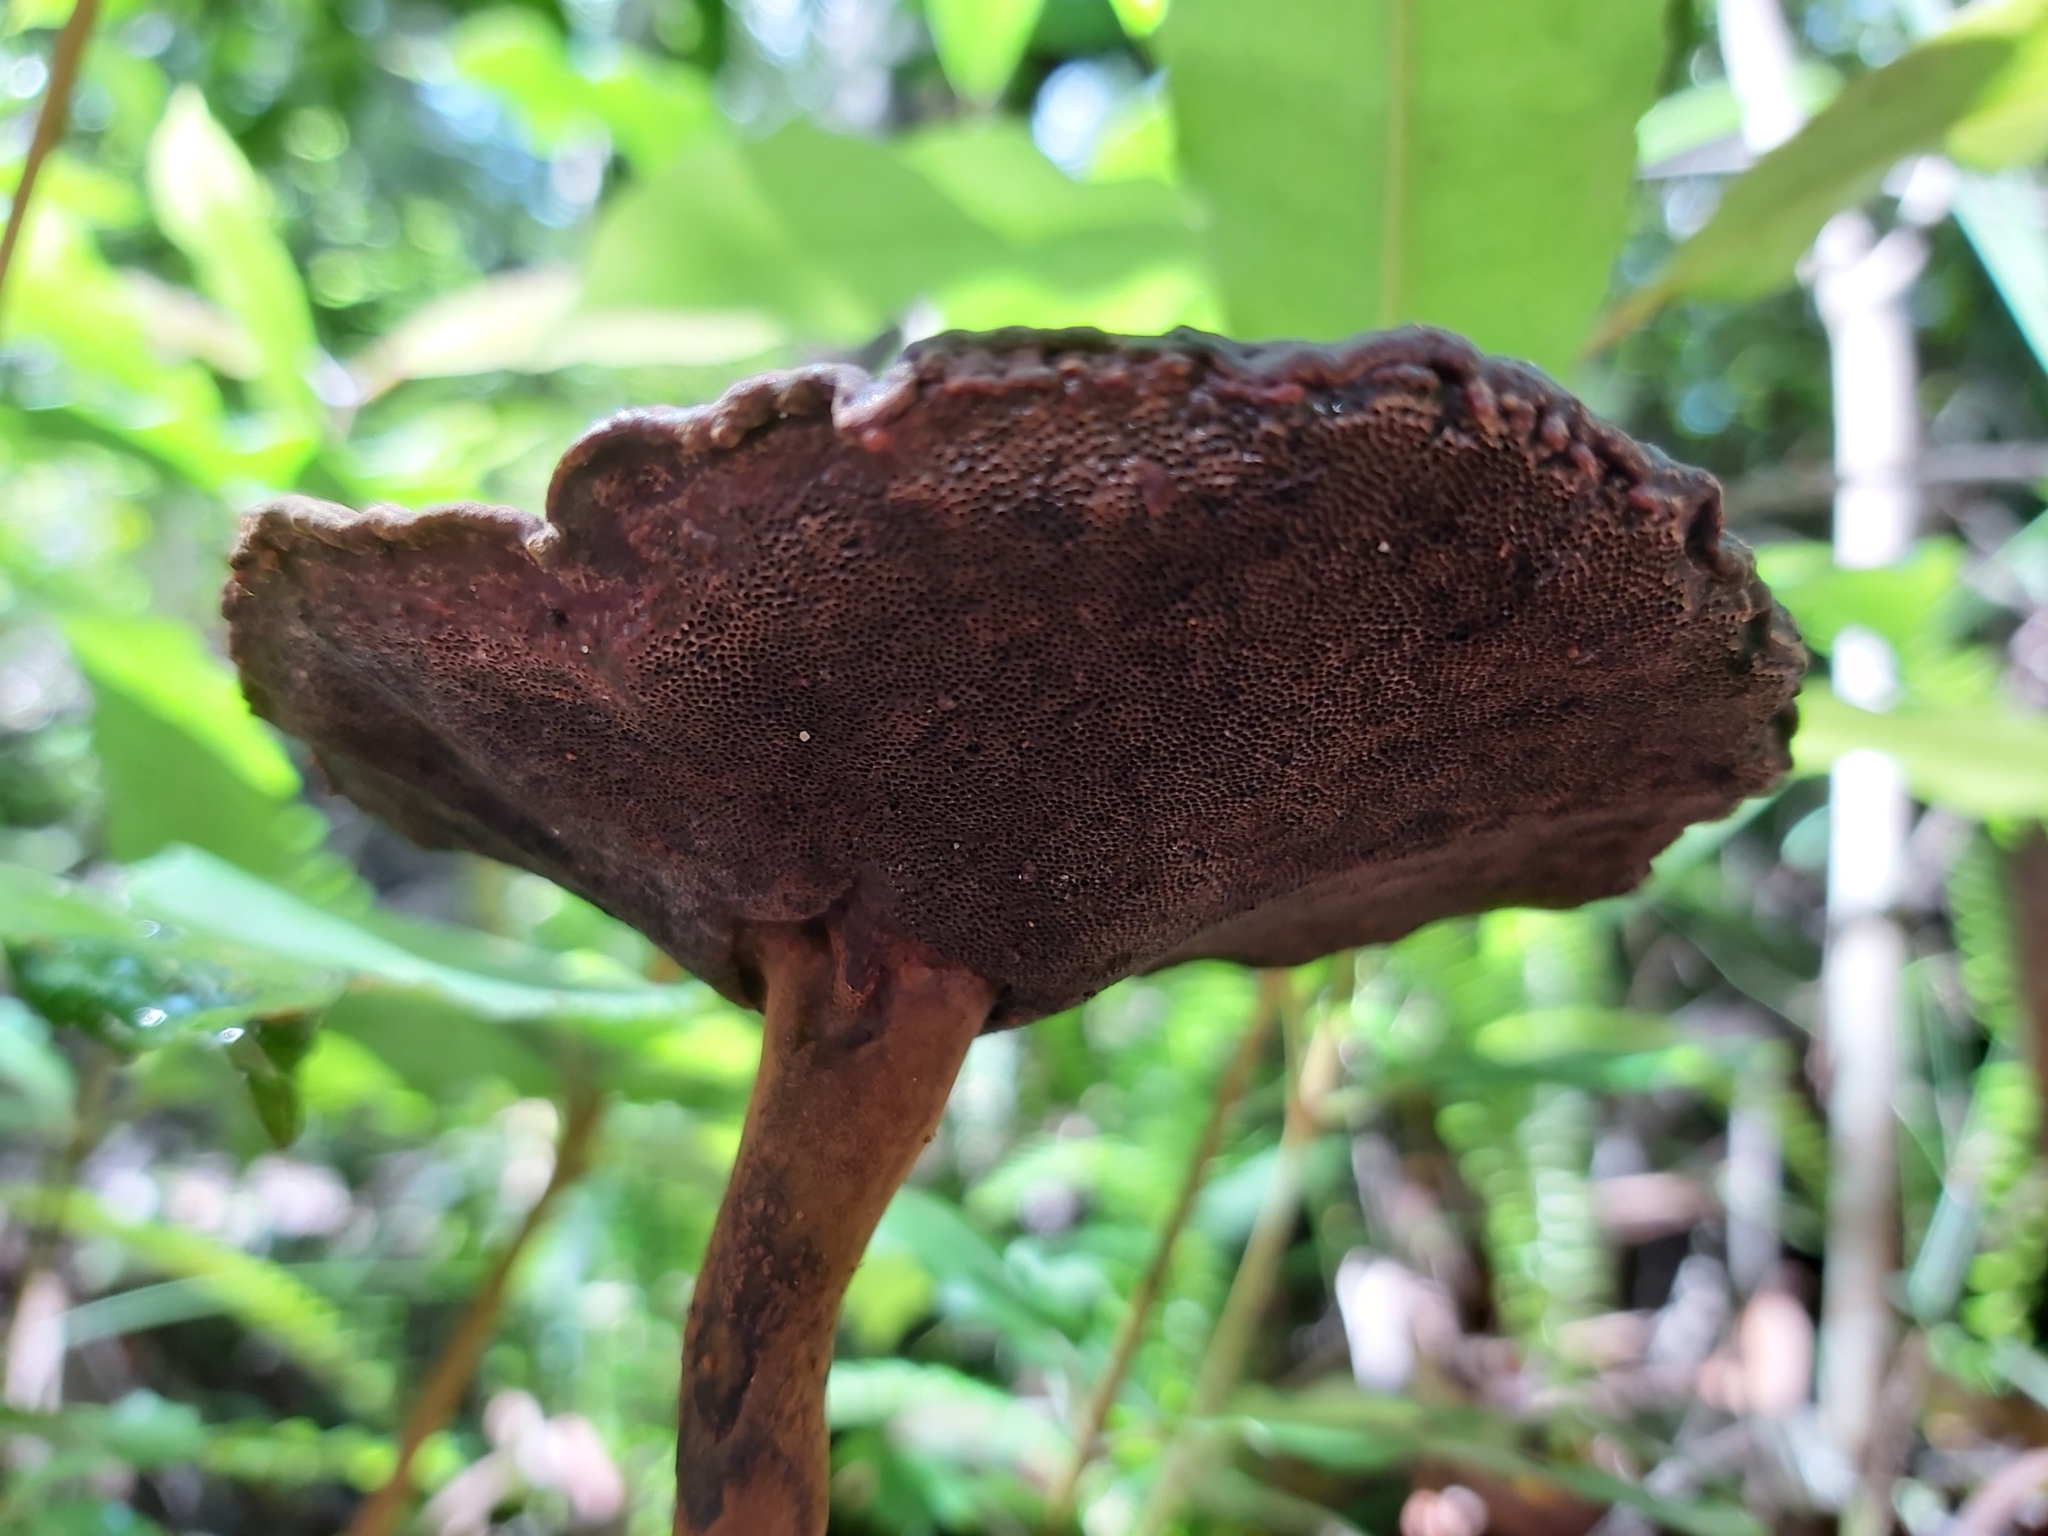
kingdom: Fungi
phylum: Basidiomycota
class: Agaricomycetes
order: Polyporales
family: Ganodermataceae
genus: Sanguinoderma
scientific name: Sanguinoderma rude
